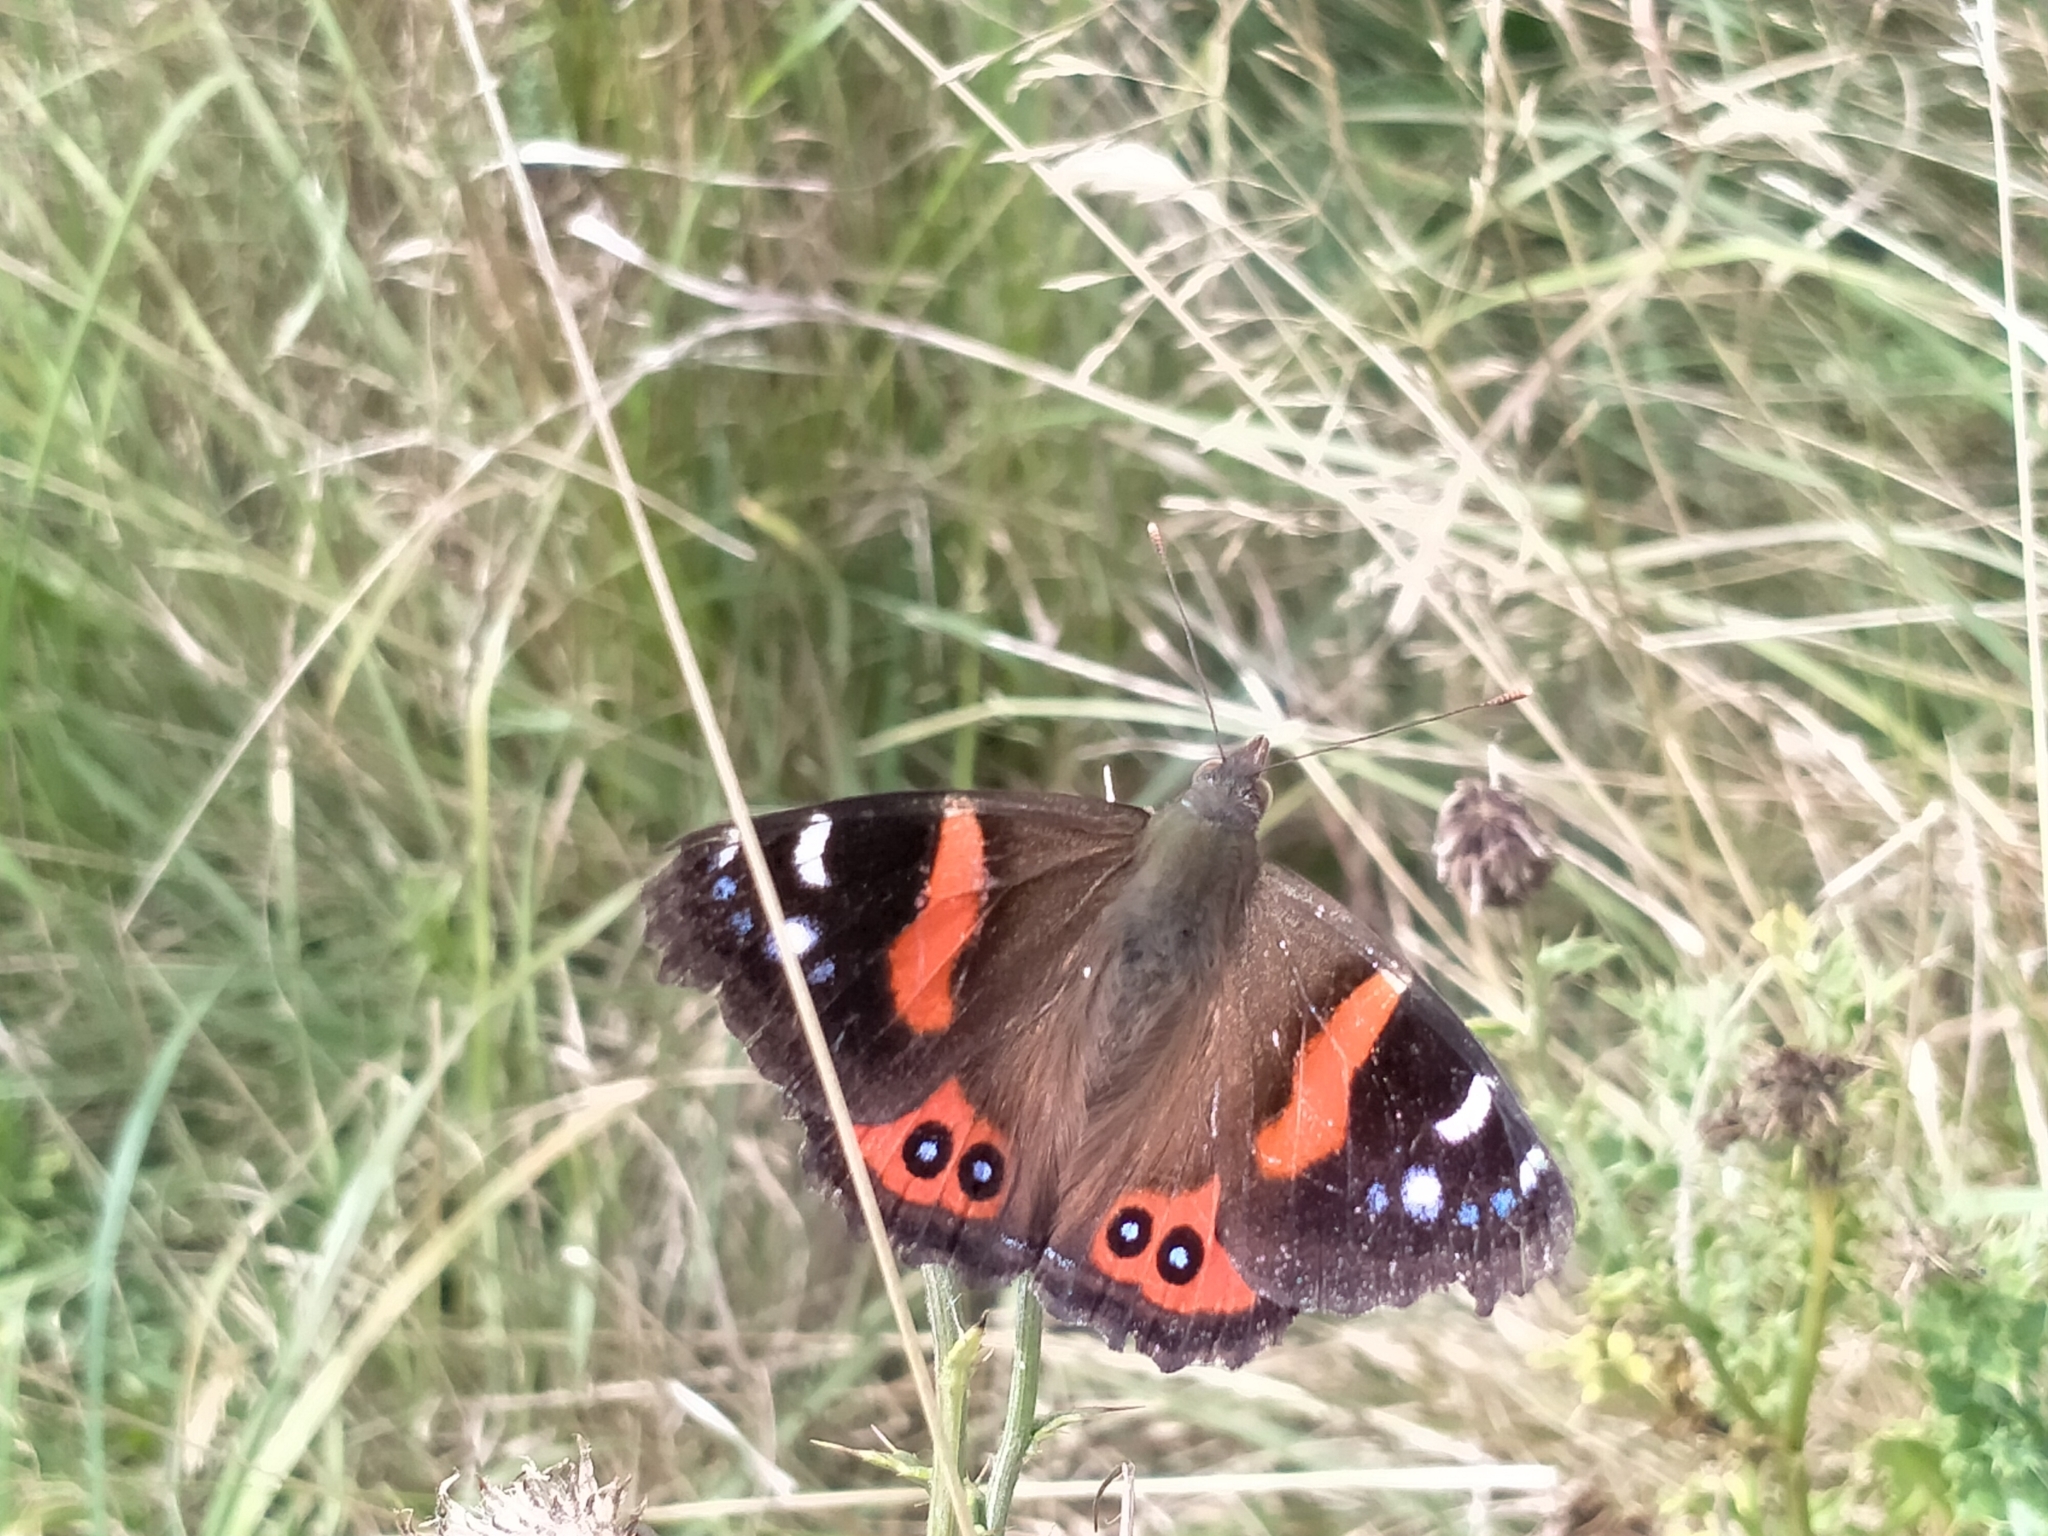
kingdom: Animalia
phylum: Arthropoda
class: Insecta
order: Lepidoptera
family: Nymphalidae
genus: Vanessa
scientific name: Vanessa gonerilla
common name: New zealand red admiral
